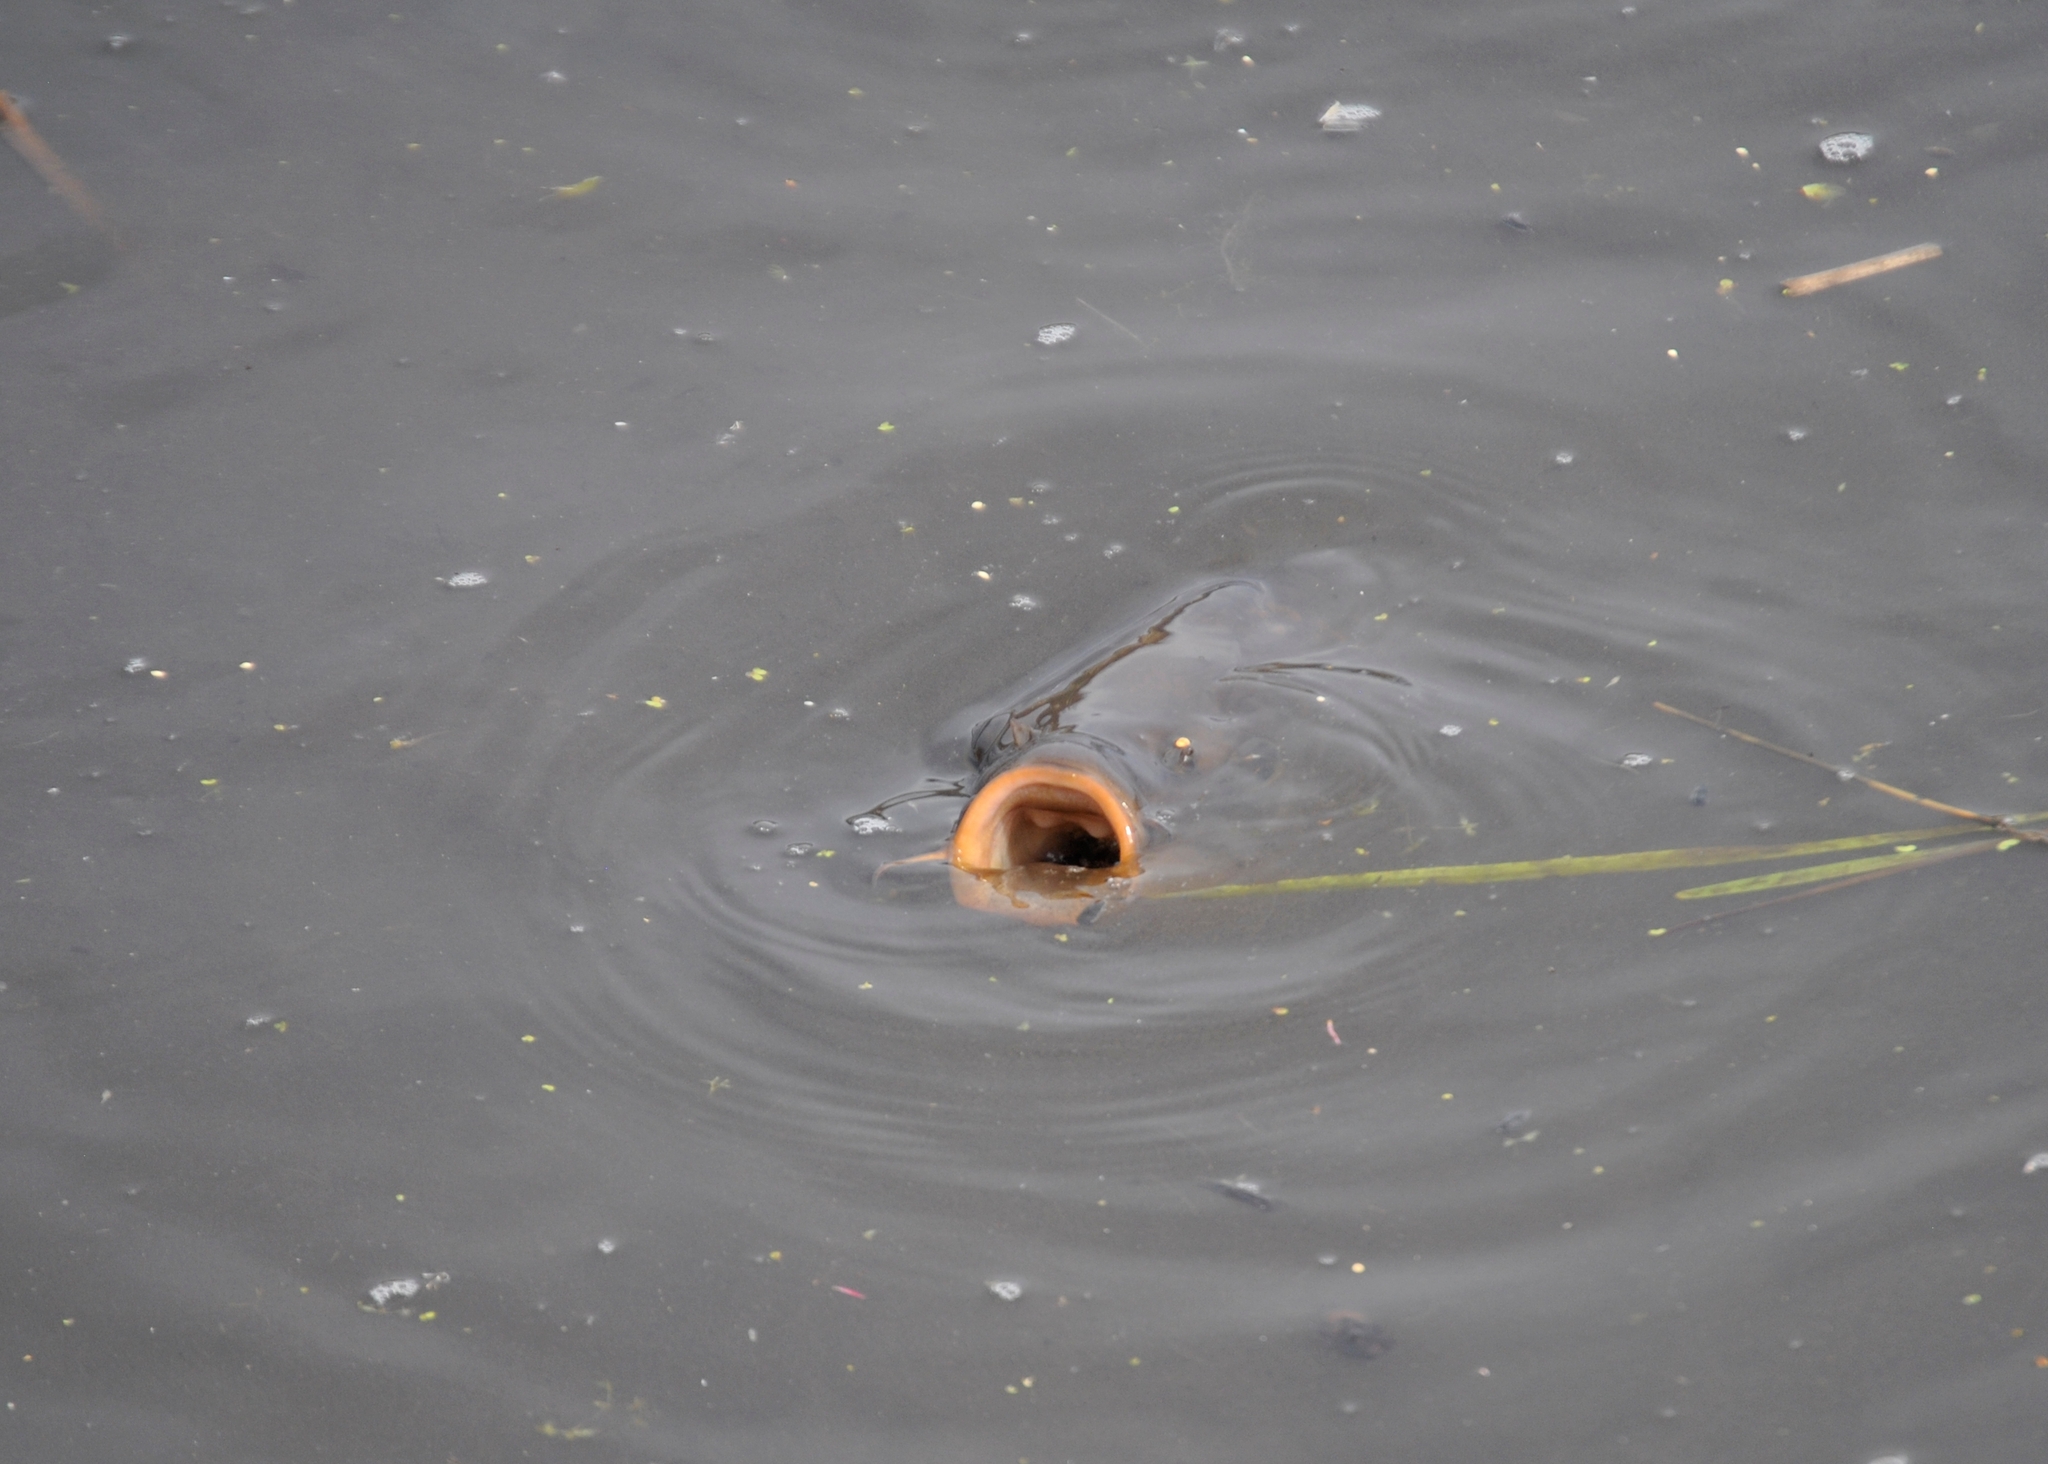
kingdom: Animalia
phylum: Chordata
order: Cypriniformes
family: Cyprinidae
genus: Cyprinus
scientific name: Cyprinus carpio
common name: Common carp
